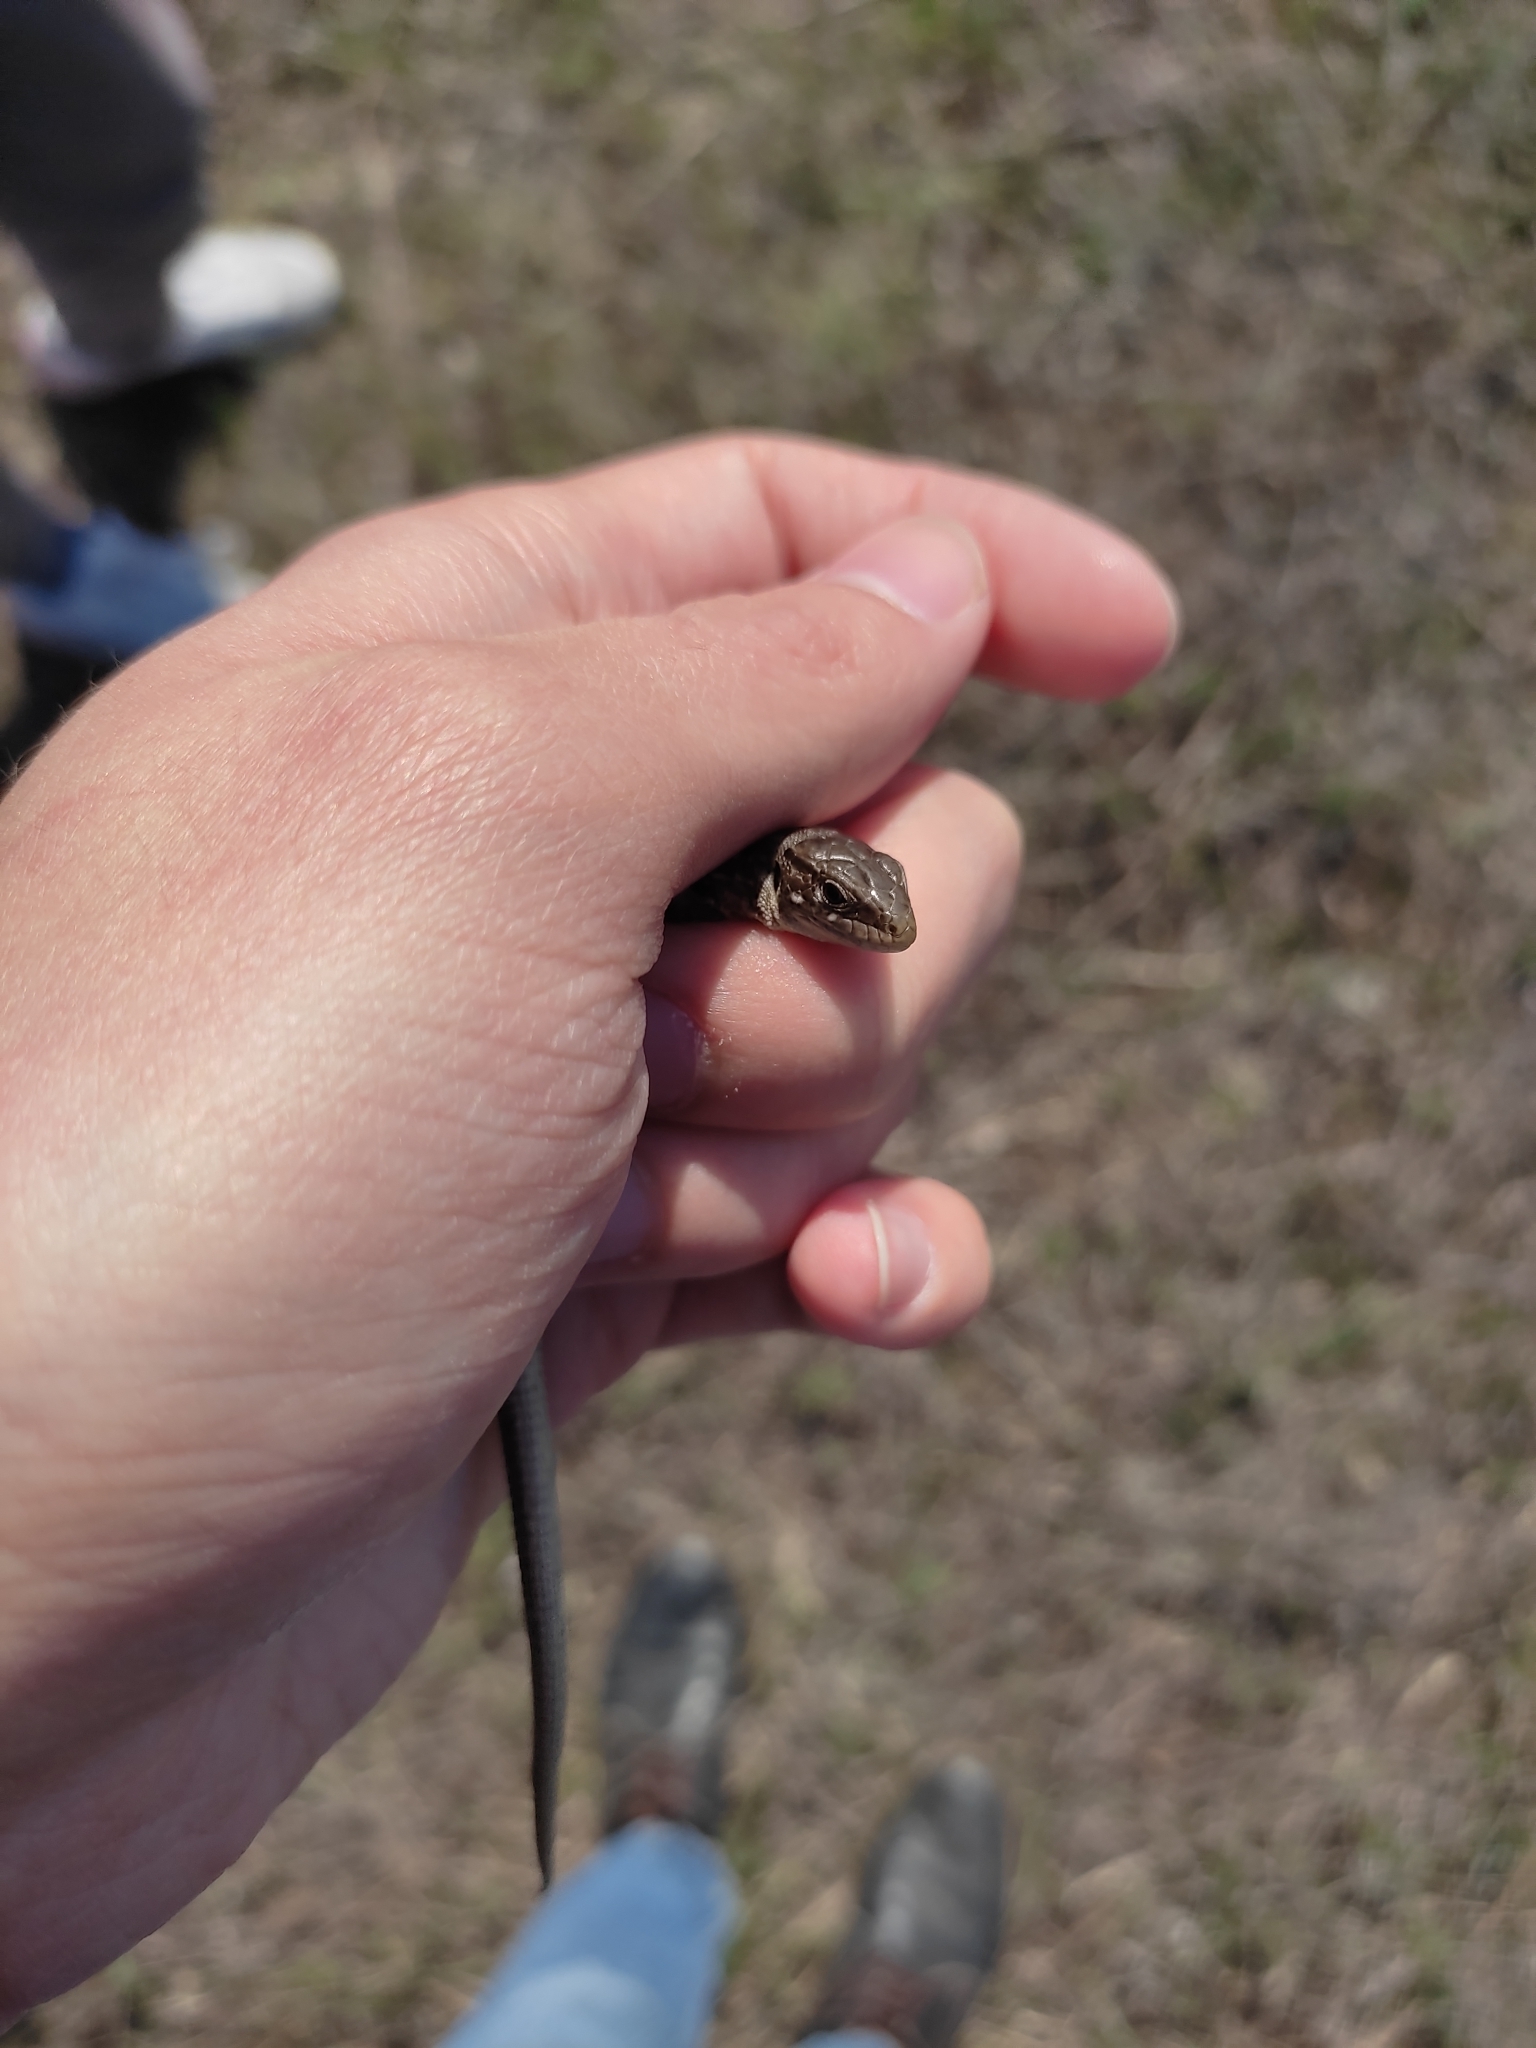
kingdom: Animalia
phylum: Chordata
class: Squamata
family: Lacertidae
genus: Lacerta
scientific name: Lacerta agilis
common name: Sand lizard
